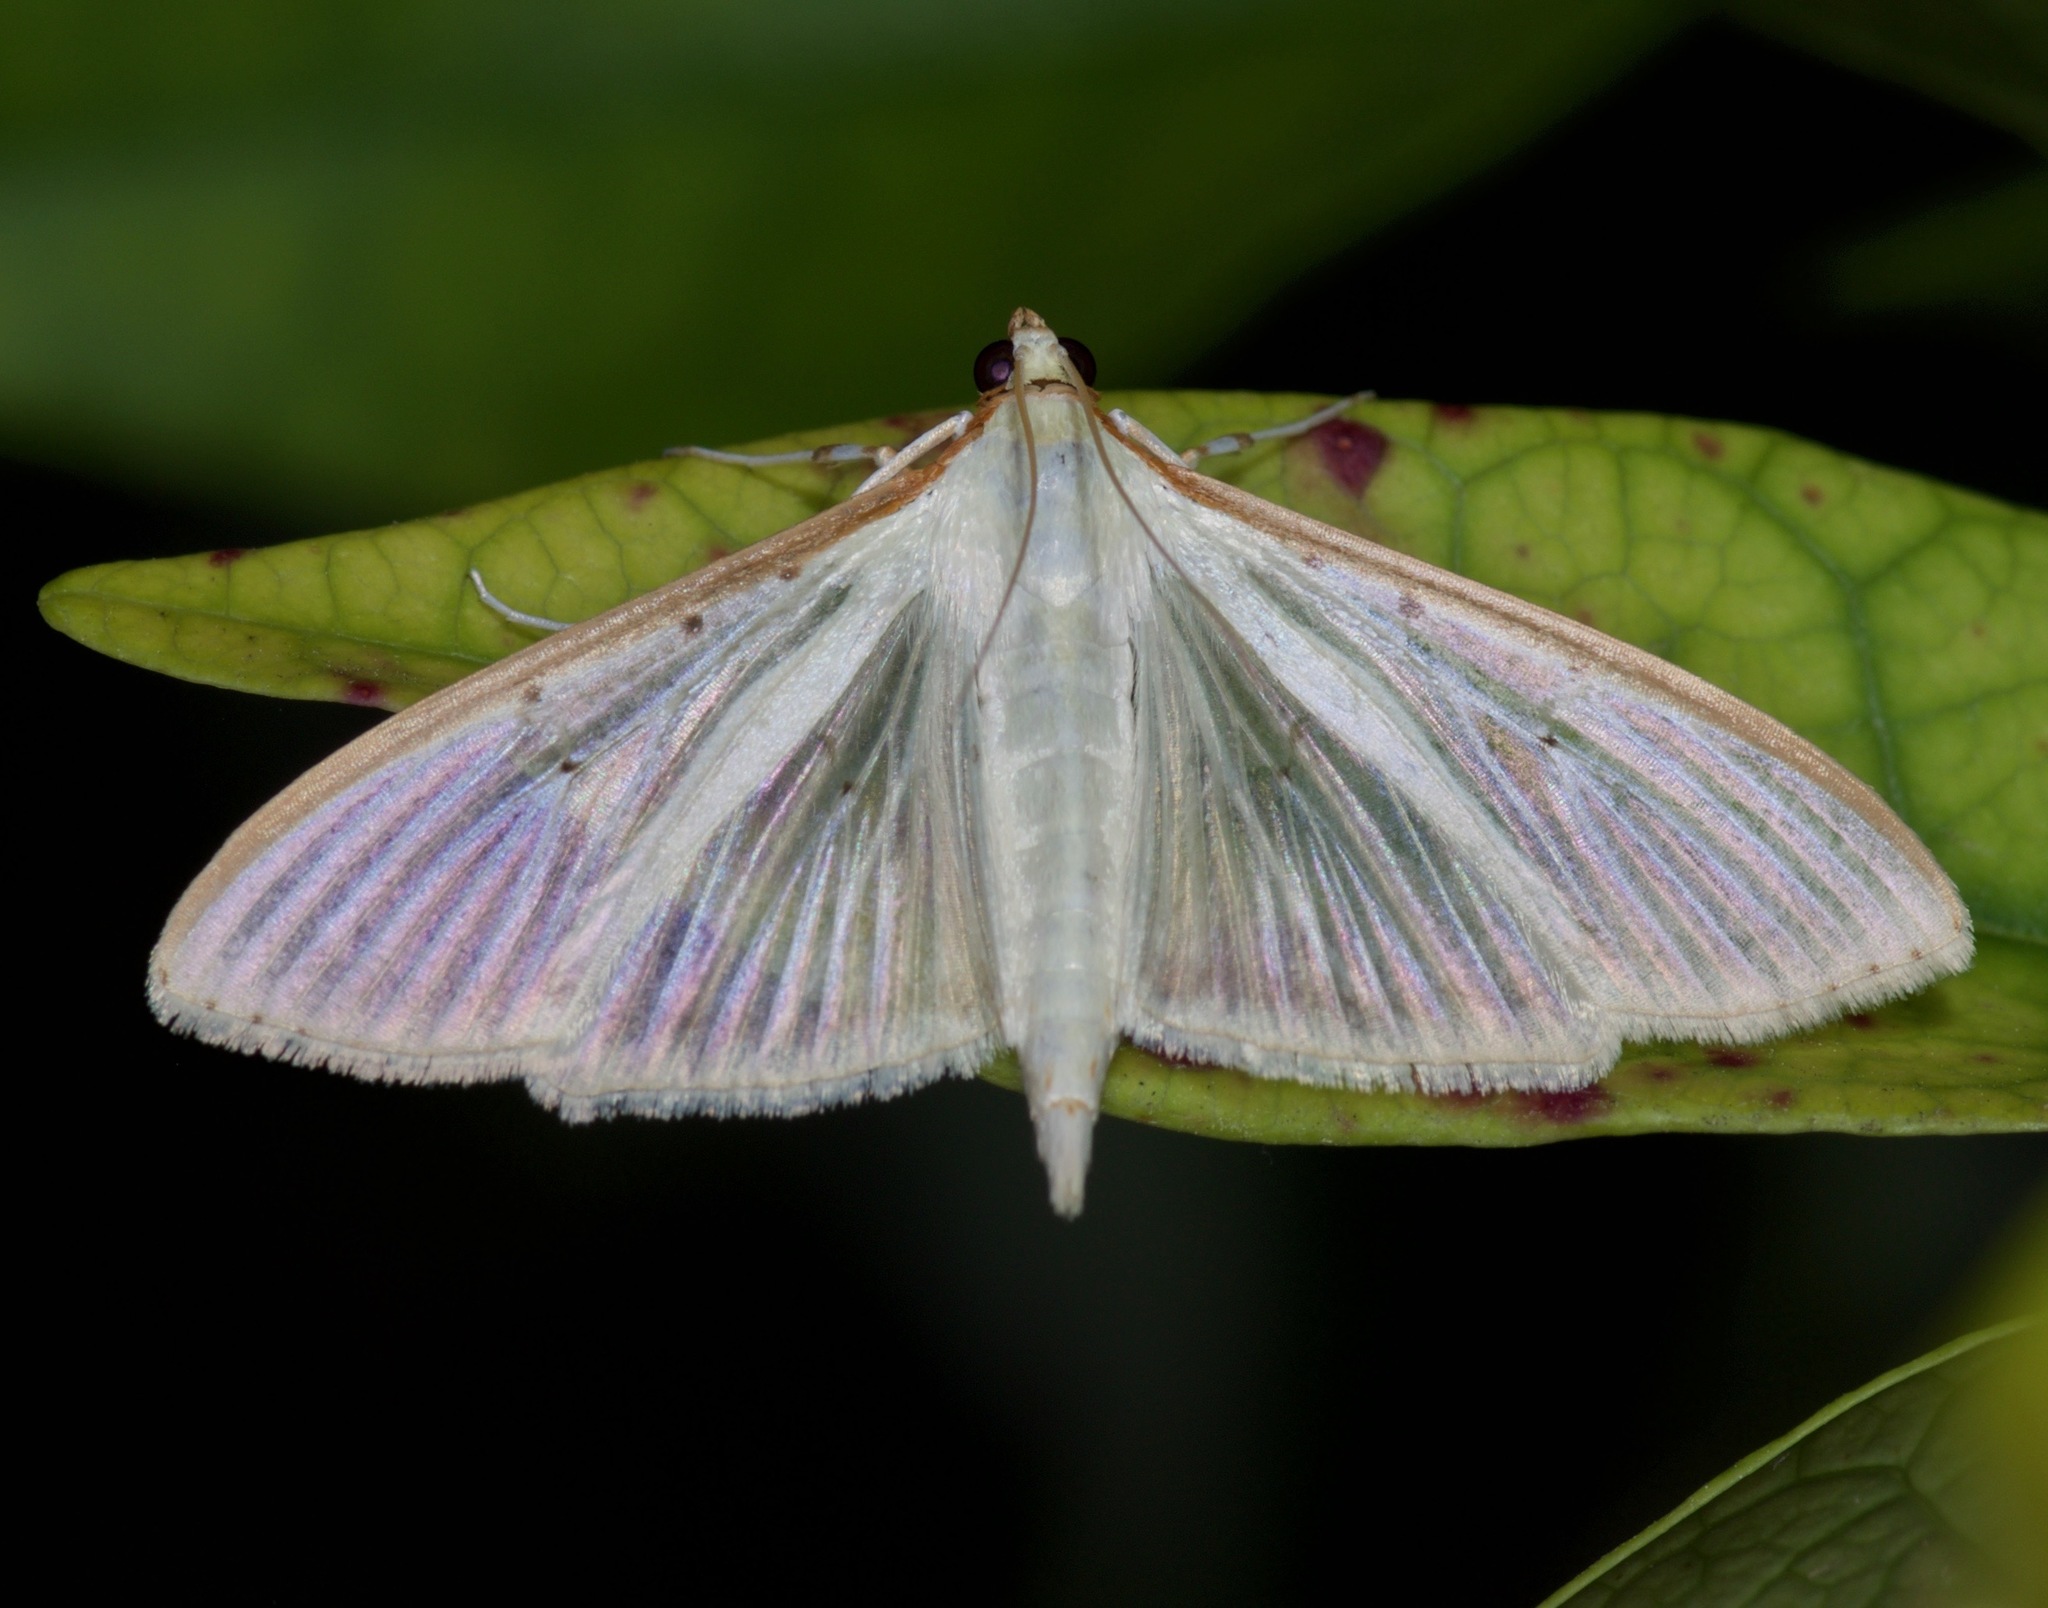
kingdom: Animalia
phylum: Arthropoda
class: Insecta
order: Lepidoptera
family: Crambidae
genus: Palpita
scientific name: Palpita quadristigmalis
